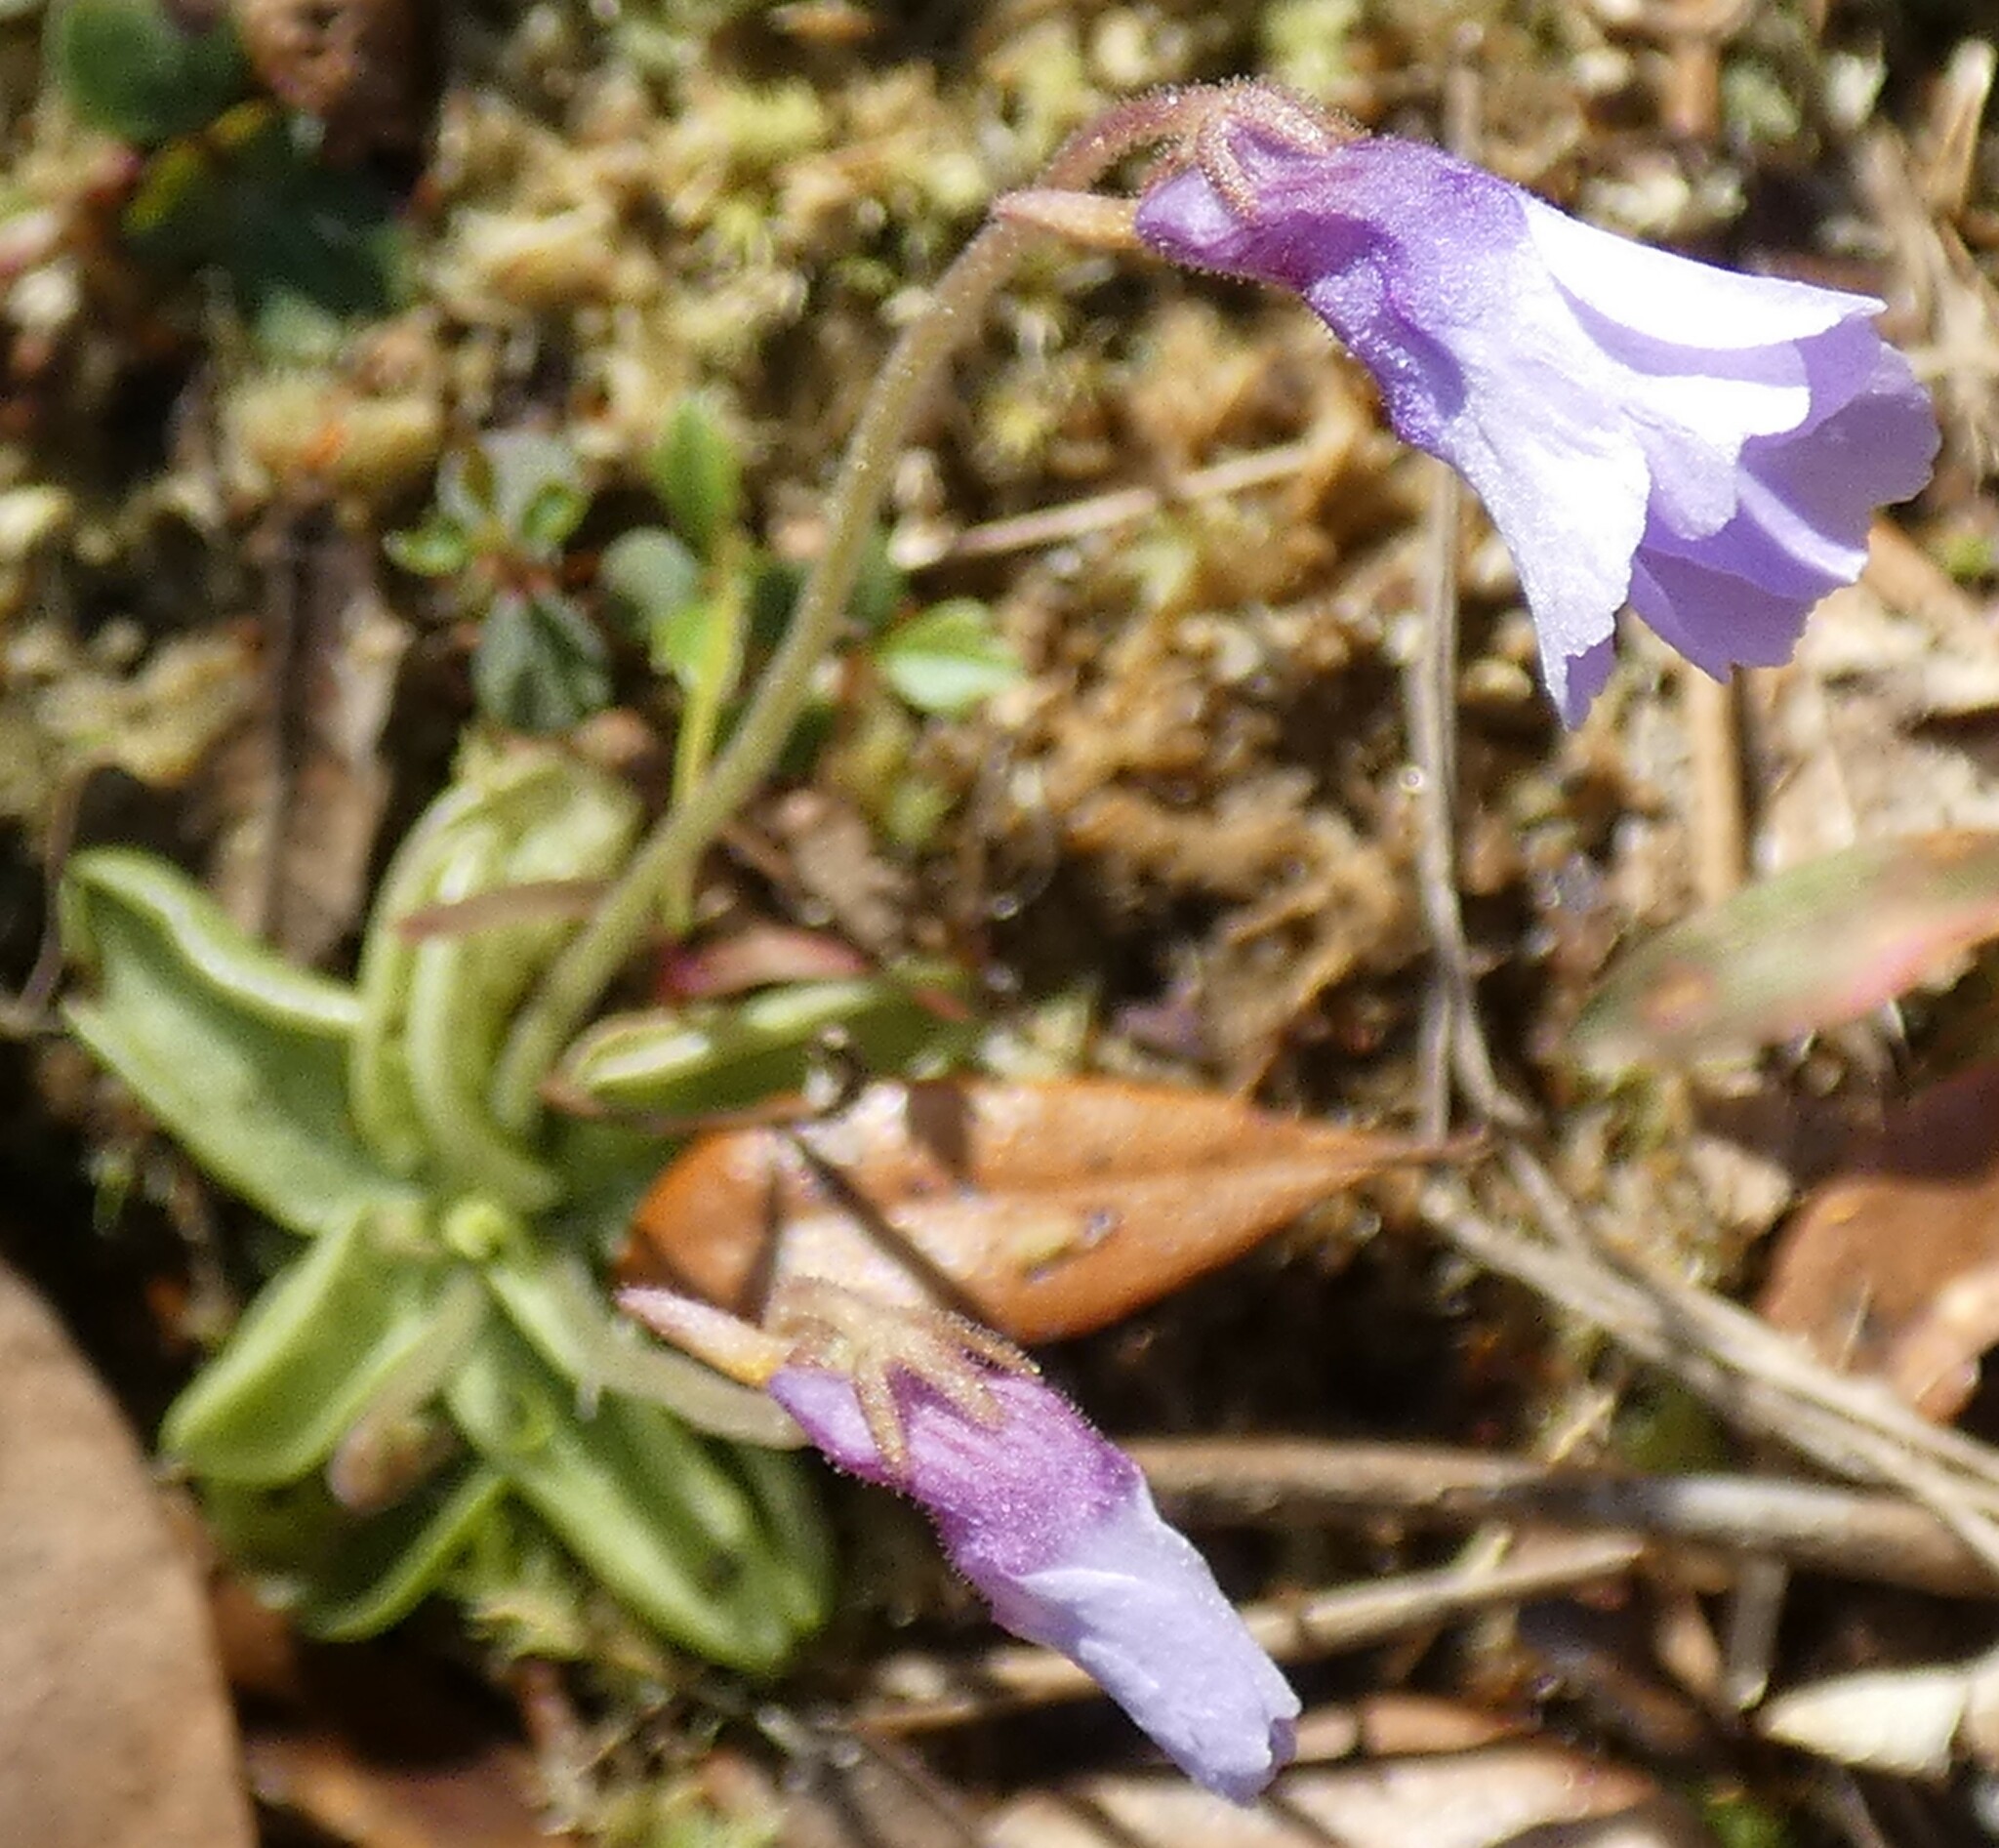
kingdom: Plantae
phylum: Tracheophyta
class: Magnoliopsida
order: Lamiales
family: Lentibulariaceae
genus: Pinguicula
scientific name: Pinguicula pumila
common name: Small butterwort
